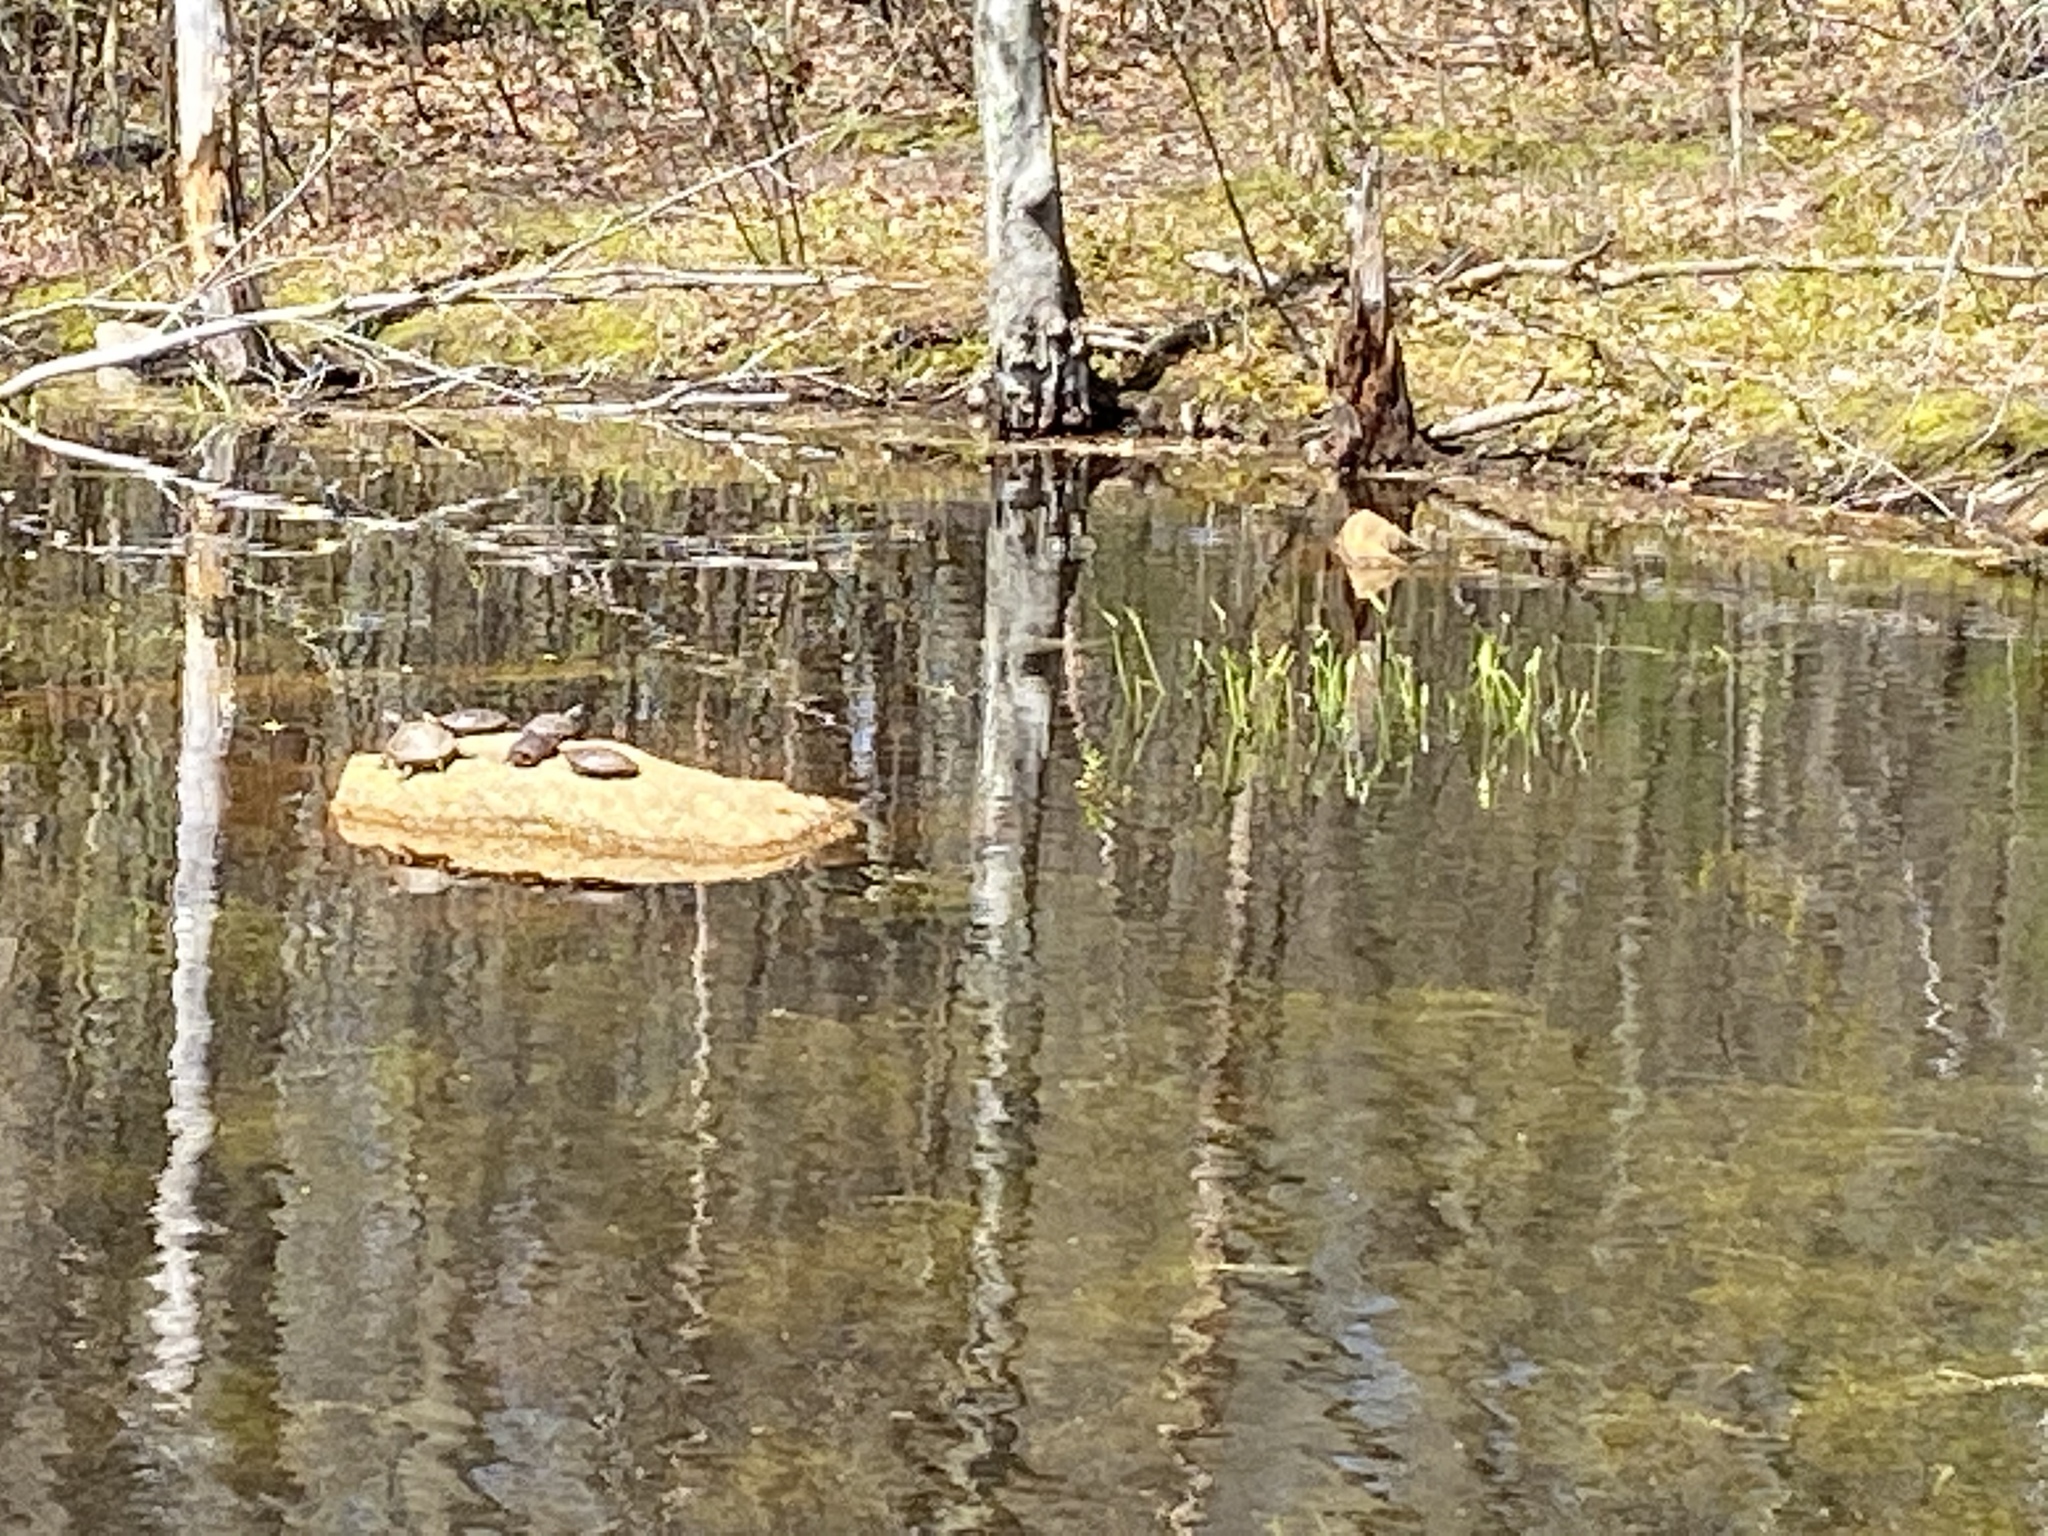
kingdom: Animalia
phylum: Chordata
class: Testudines
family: Emydidae
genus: Chrysemys
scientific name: Chrysemys picta
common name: Painted turtle
